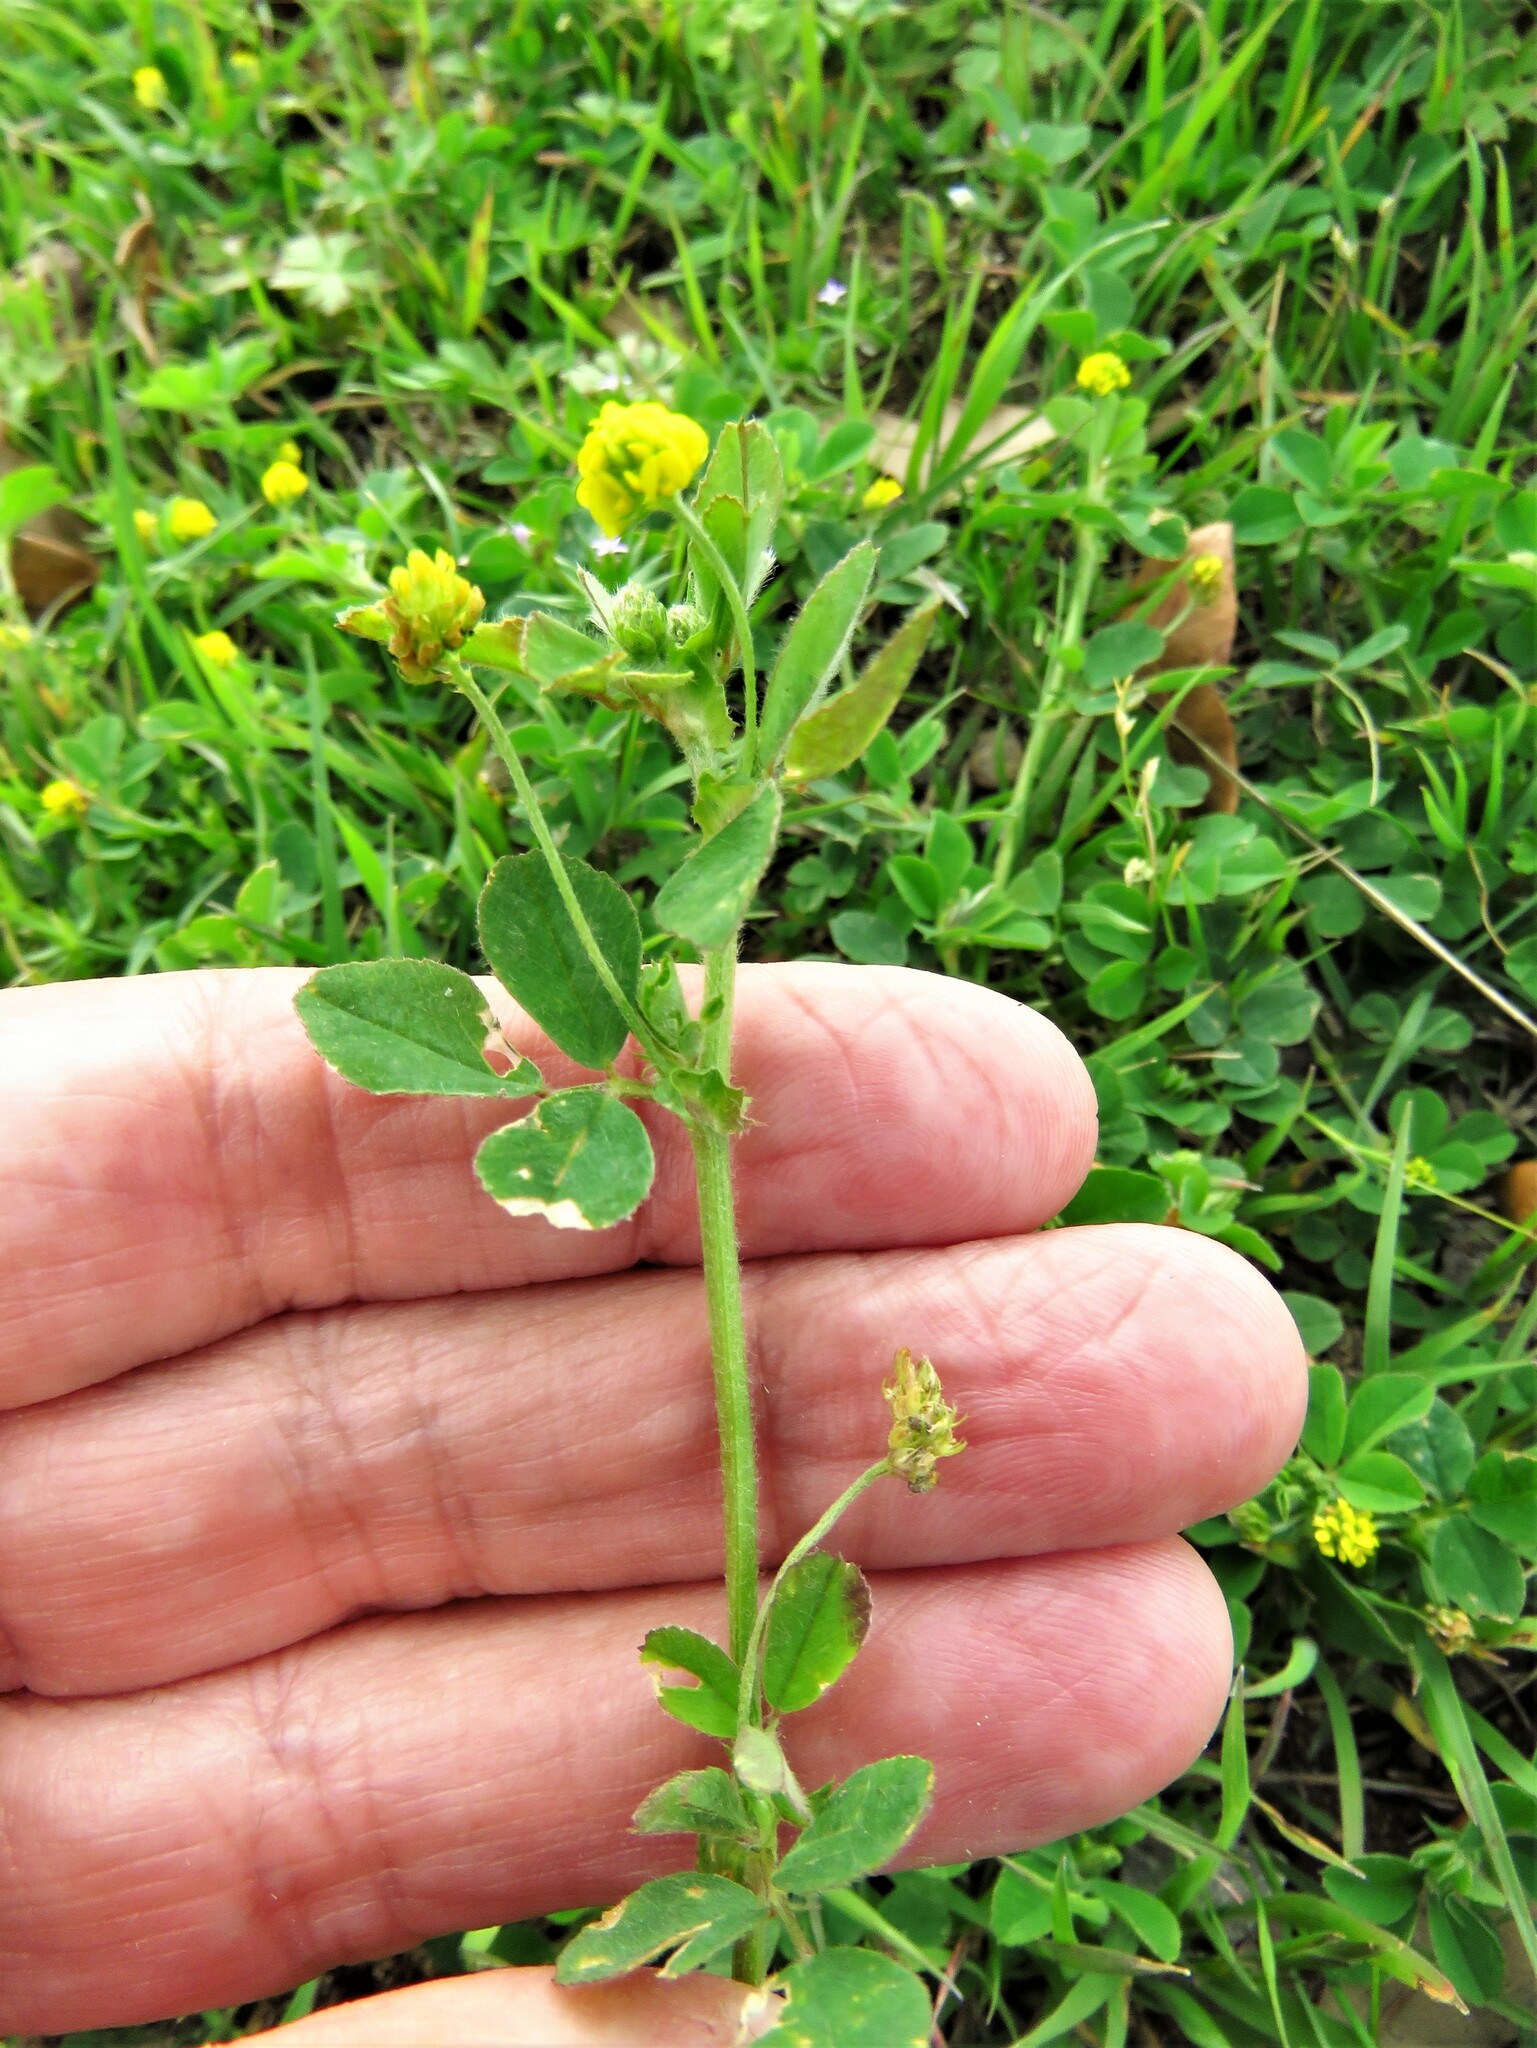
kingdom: Plantae
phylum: Tracheophyta
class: Magnoliopsida
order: Fabales
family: Fabaceae
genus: Medicago
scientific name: Medicago lupulina
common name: Black medick
